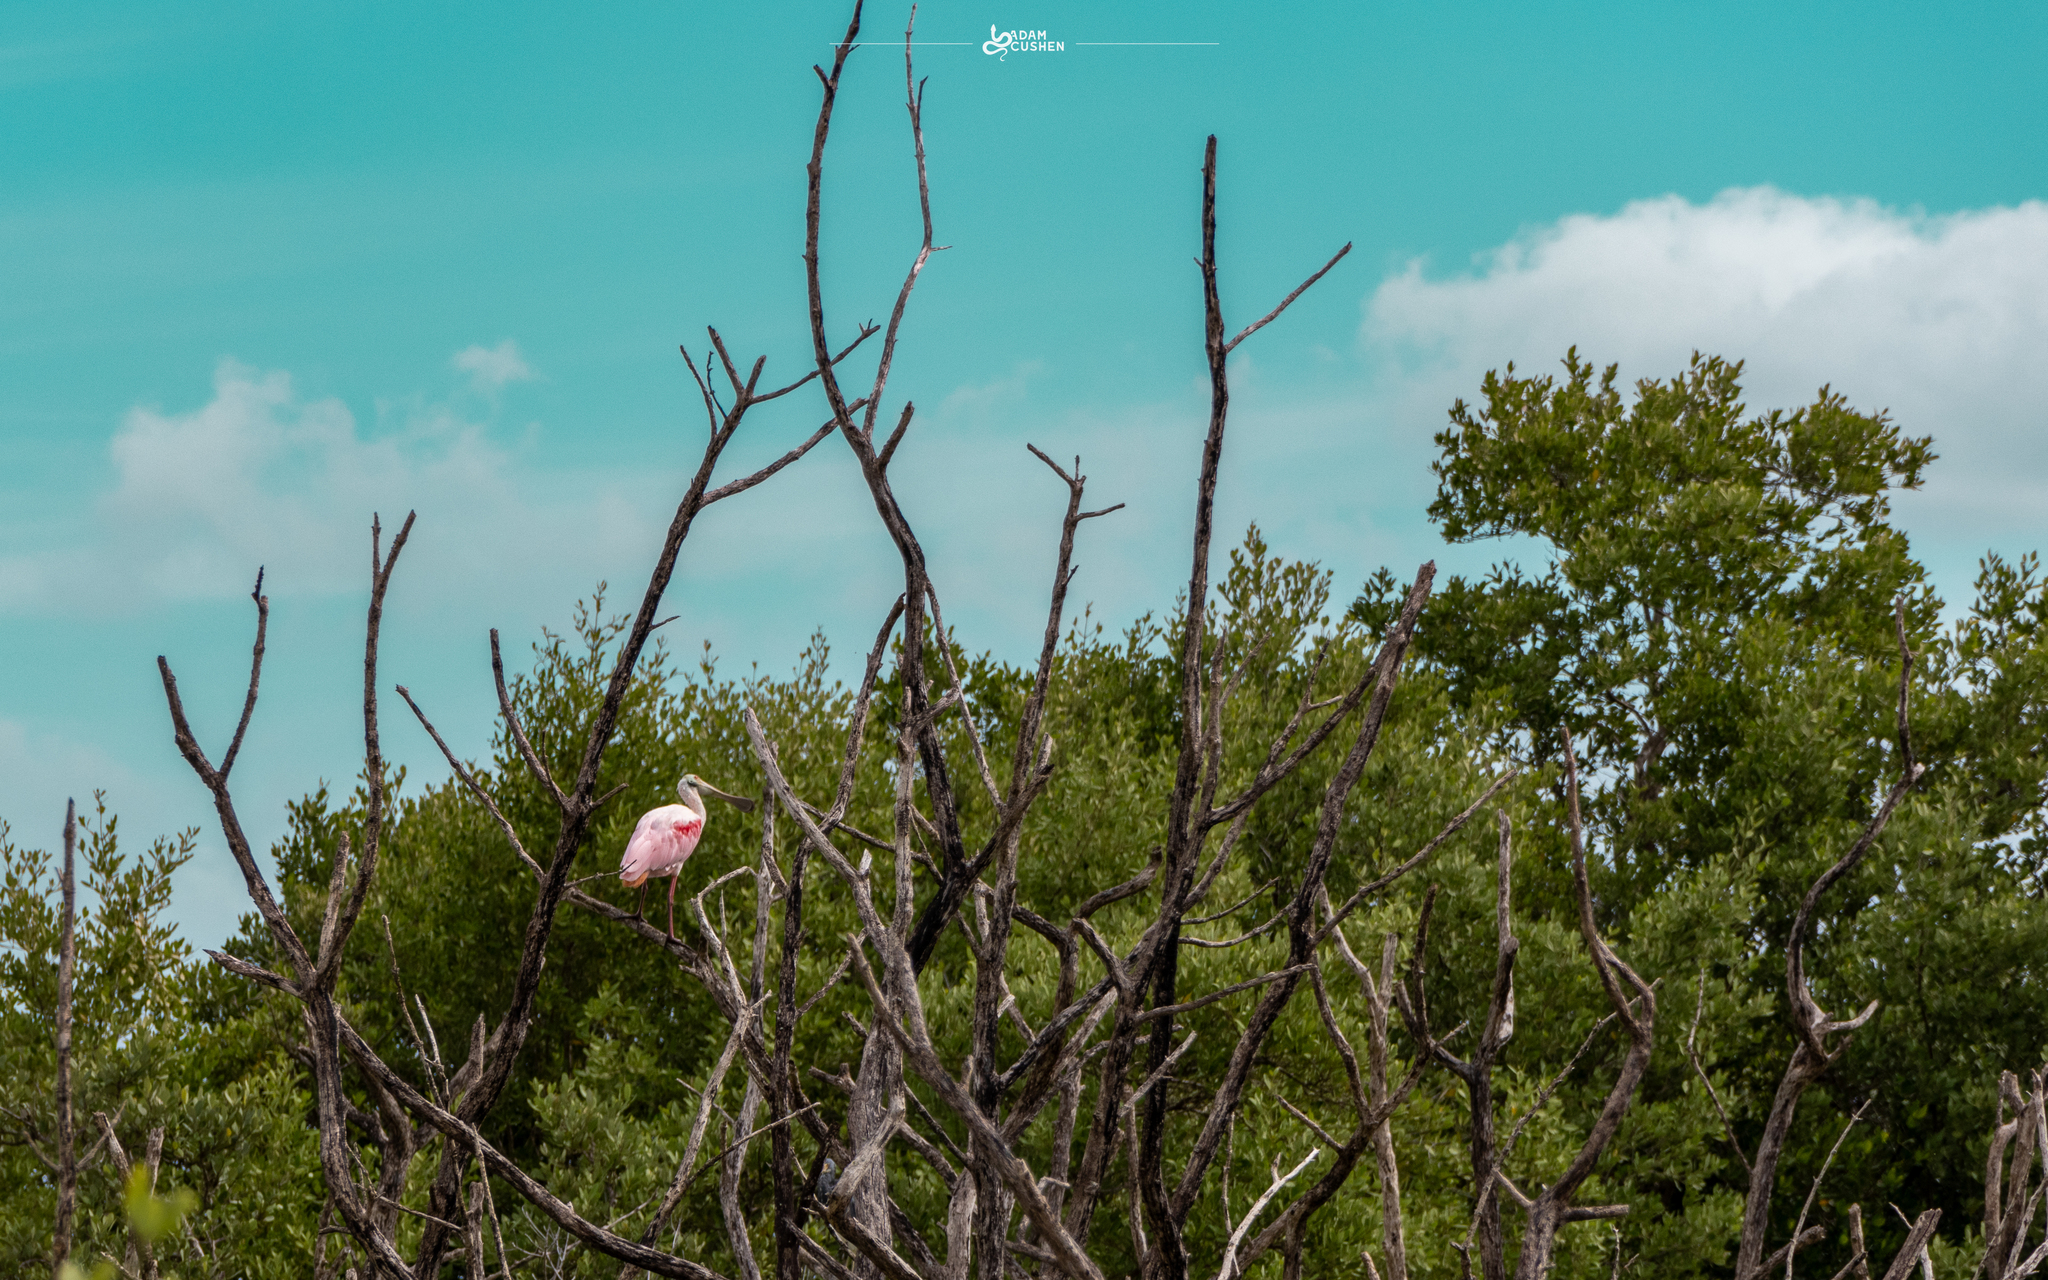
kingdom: Animalia
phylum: Chordata
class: Aves
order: Pelecaniformes
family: Threskiornithidae
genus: Platalea
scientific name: Platalea ajaja
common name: Roseate spoonbill
